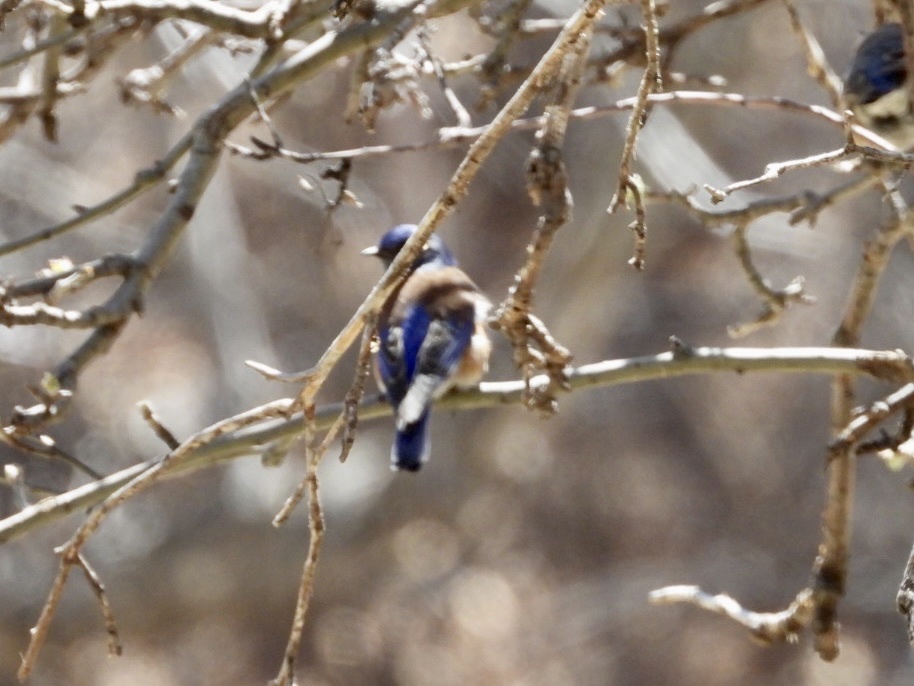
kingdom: Animalia
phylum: Chordata
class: Aves
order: Passeriformes
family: Turdidae
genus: Sialia
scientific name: Sialia mexicana
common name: Western bluebird
